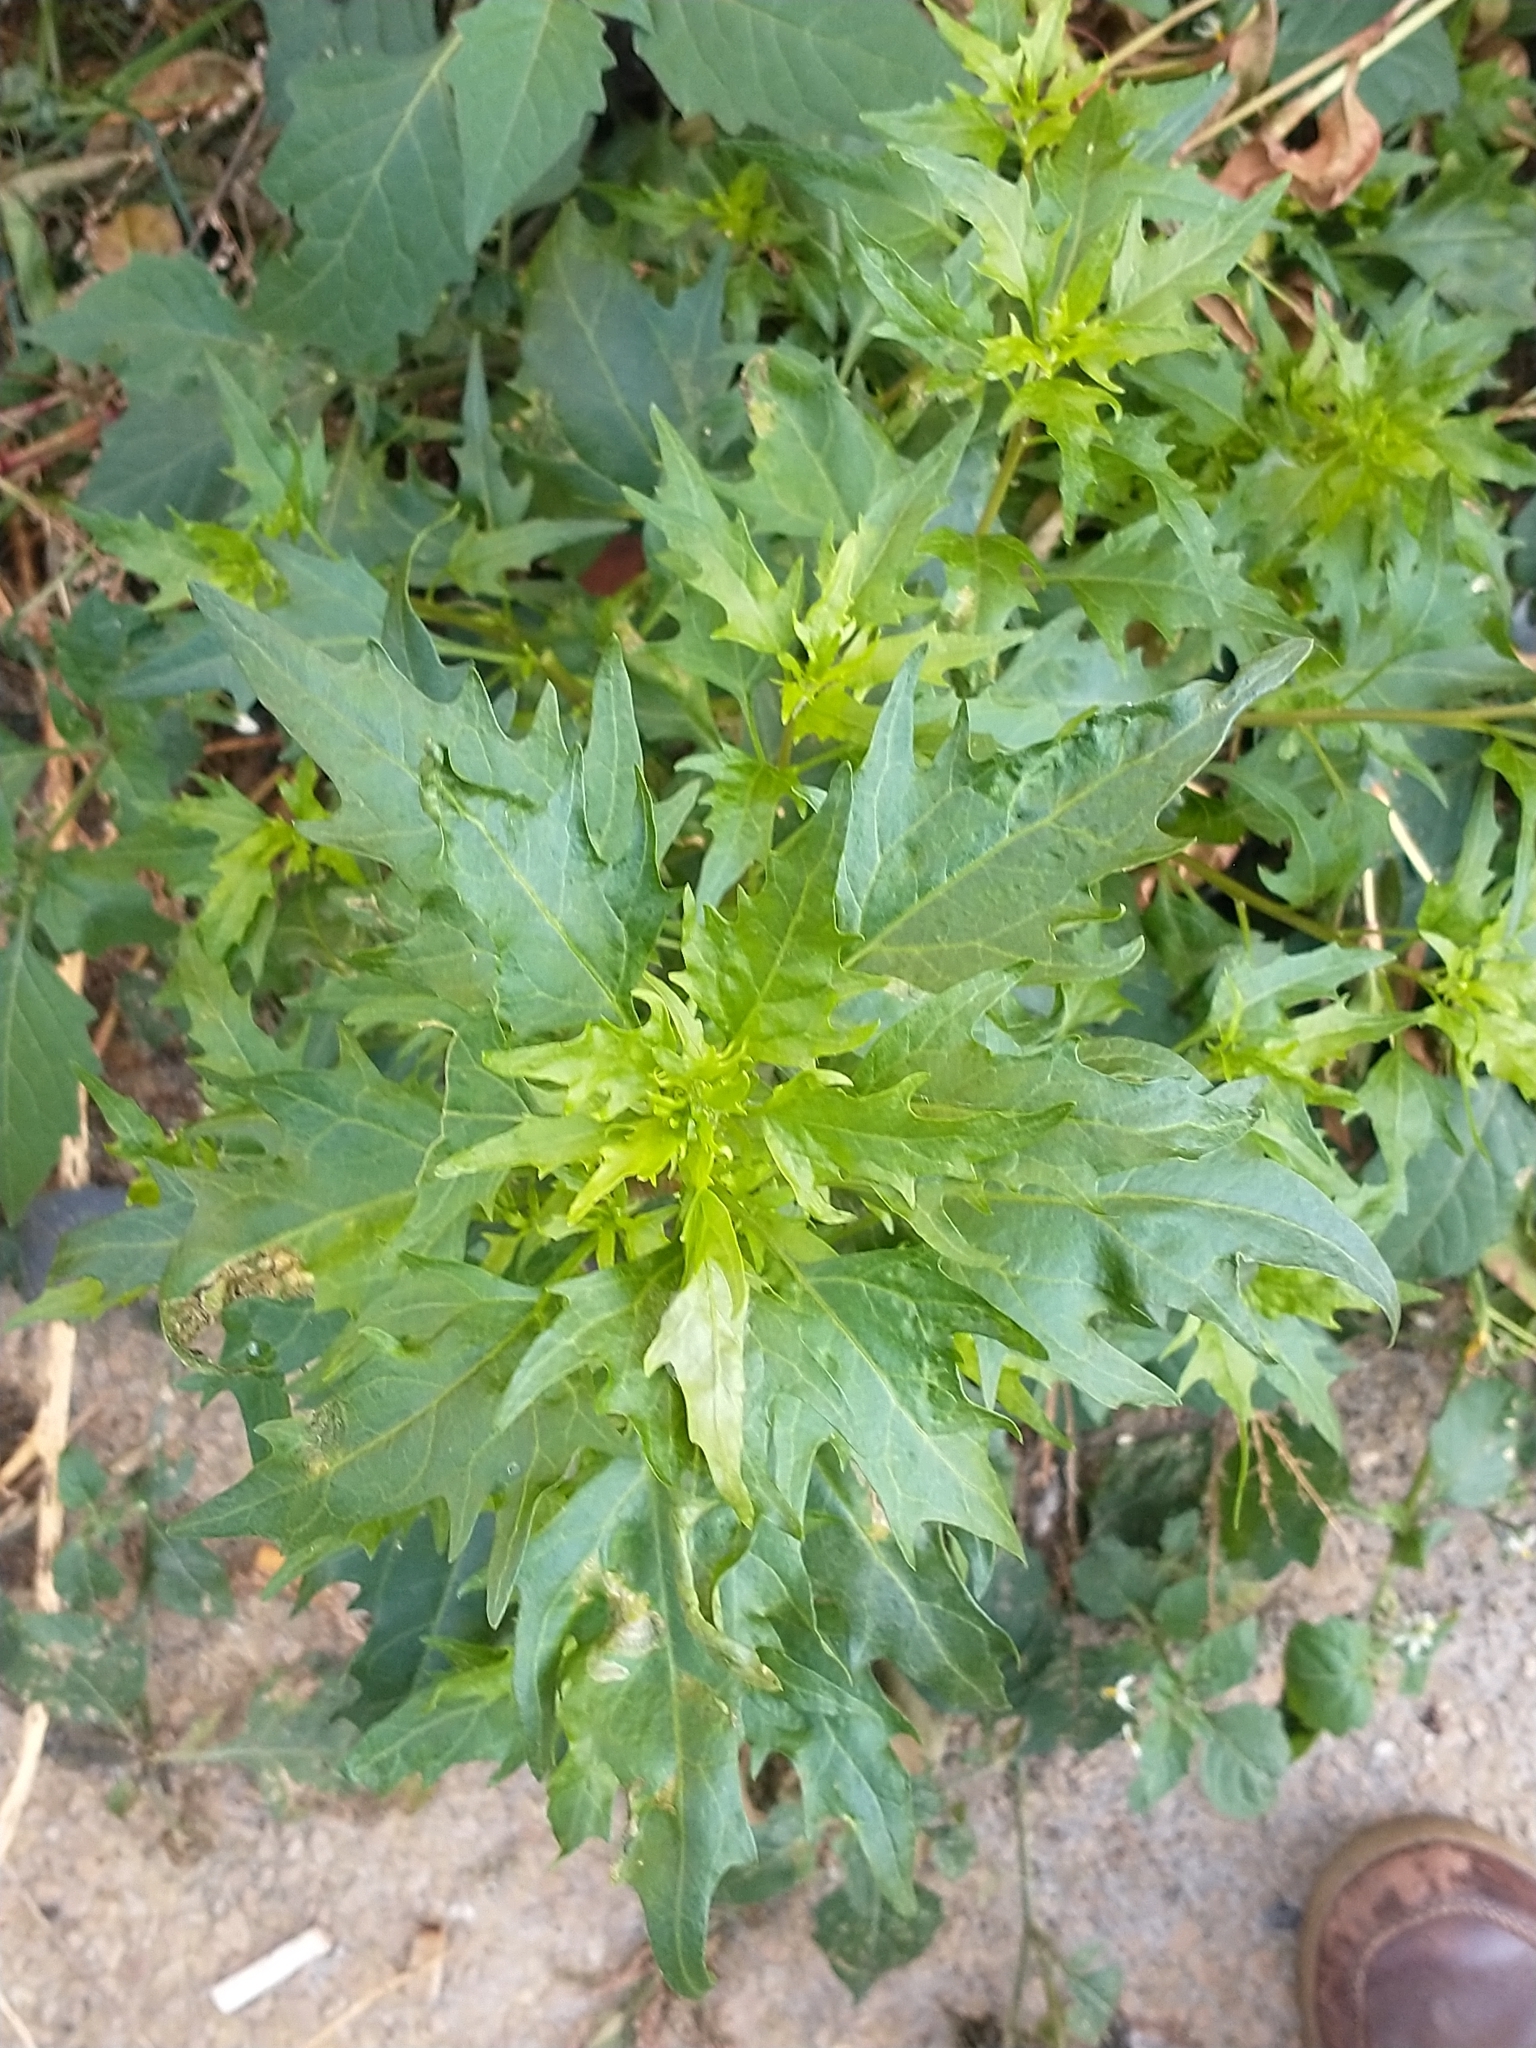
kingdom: Plantae
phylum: Tracheophyta
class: Magnoliopsida
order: Caryophyllales
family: Amaranthaceae
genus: Oxybasis
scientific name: Oxybasis rubra
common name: Red goosefoot
